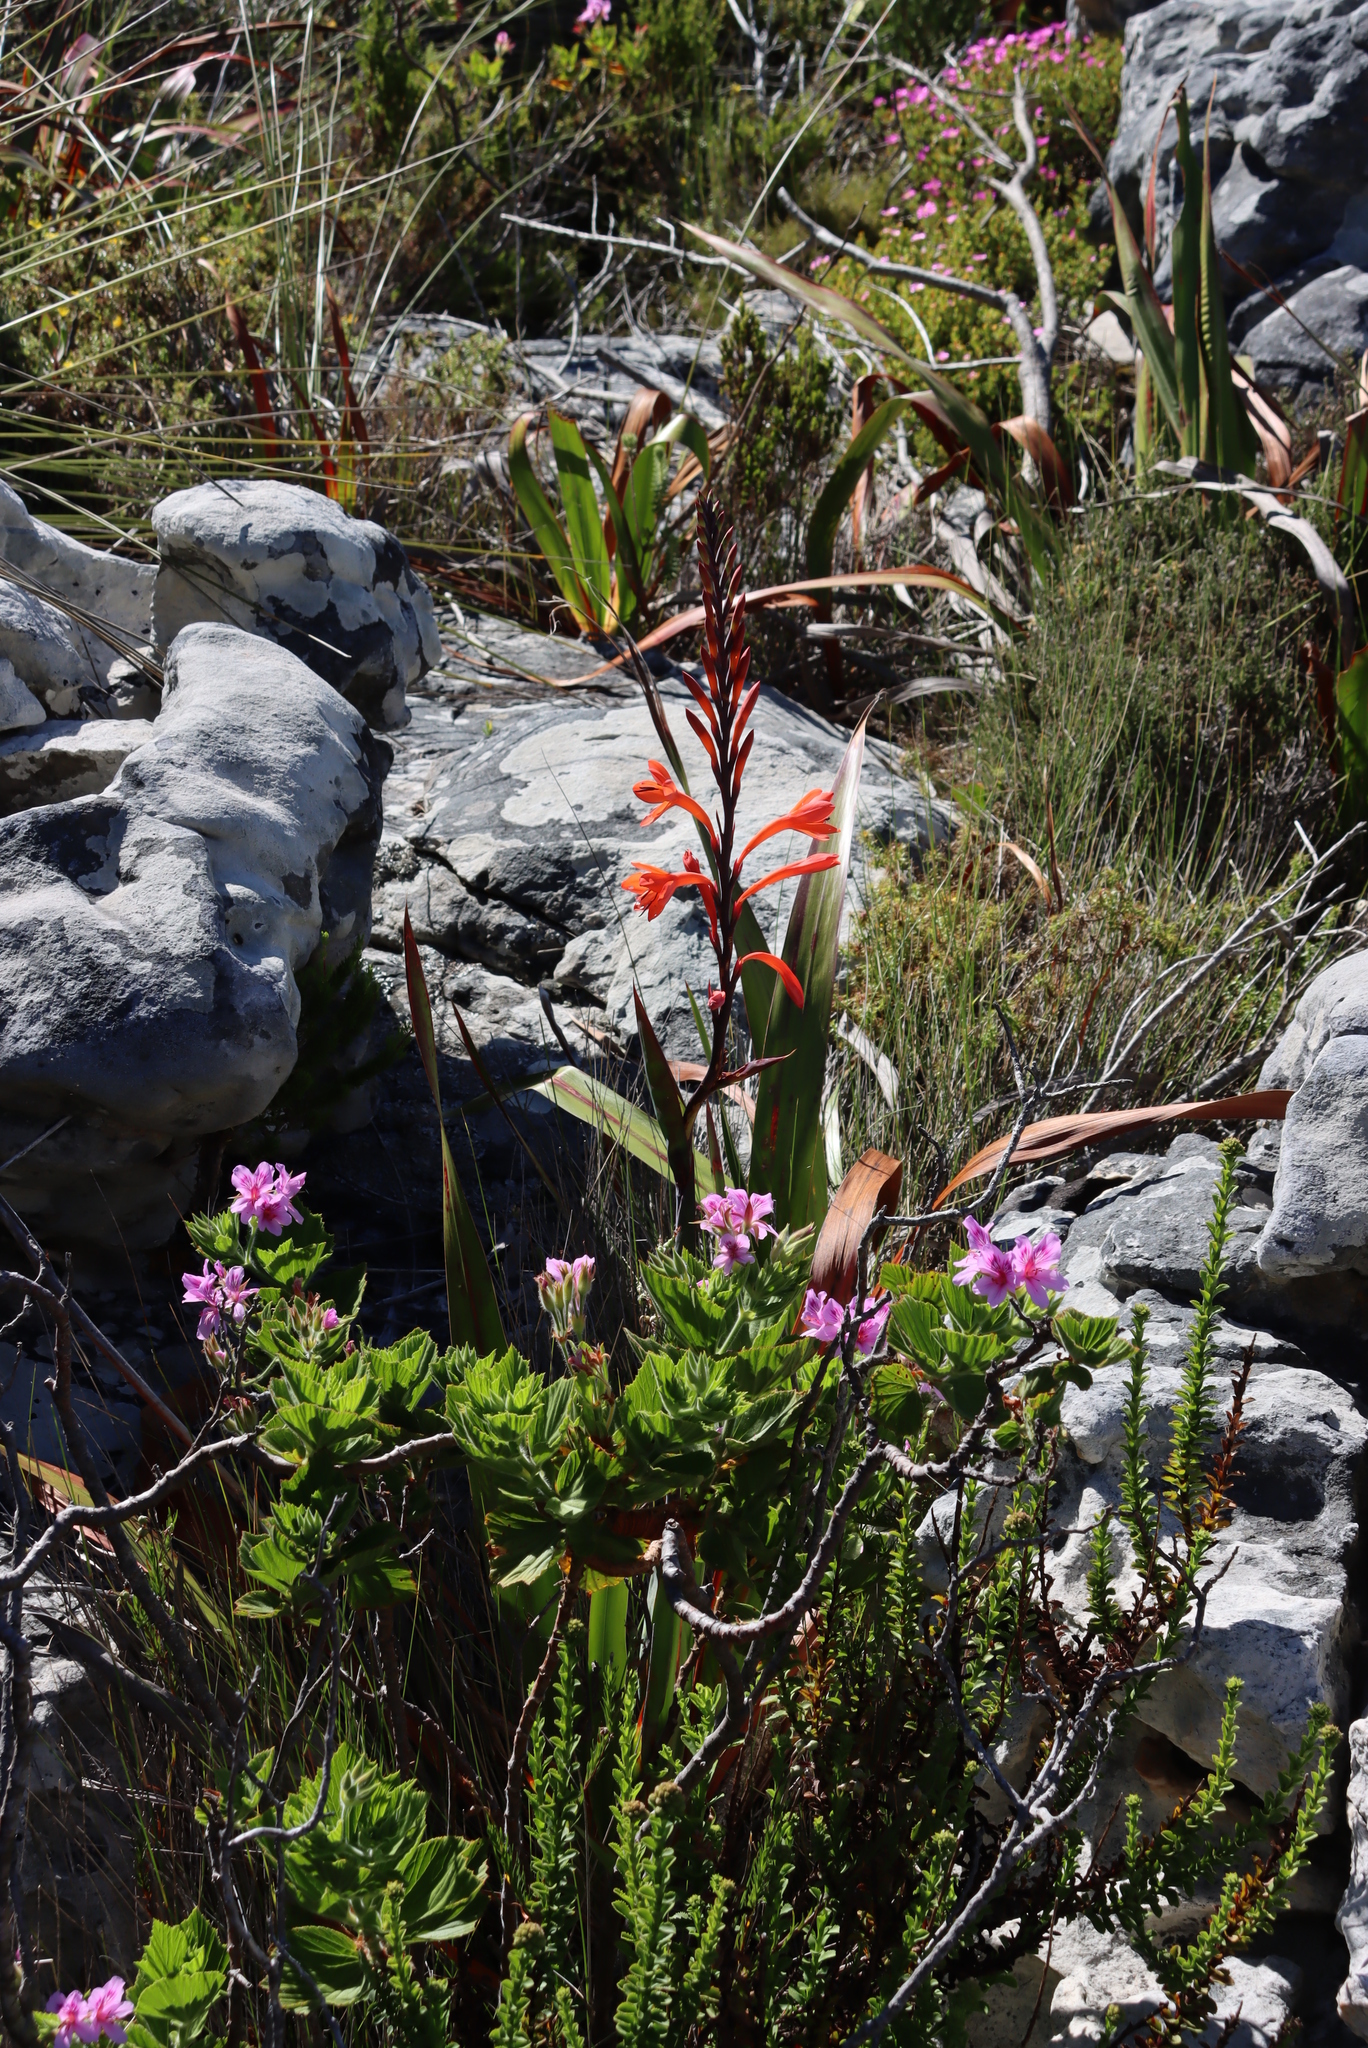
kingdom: Plantae
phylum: Tracheophyta
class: Liliopsida
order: Asparagales
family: Iridaceae
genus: Watsonia
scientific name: Watsonia tabularis
